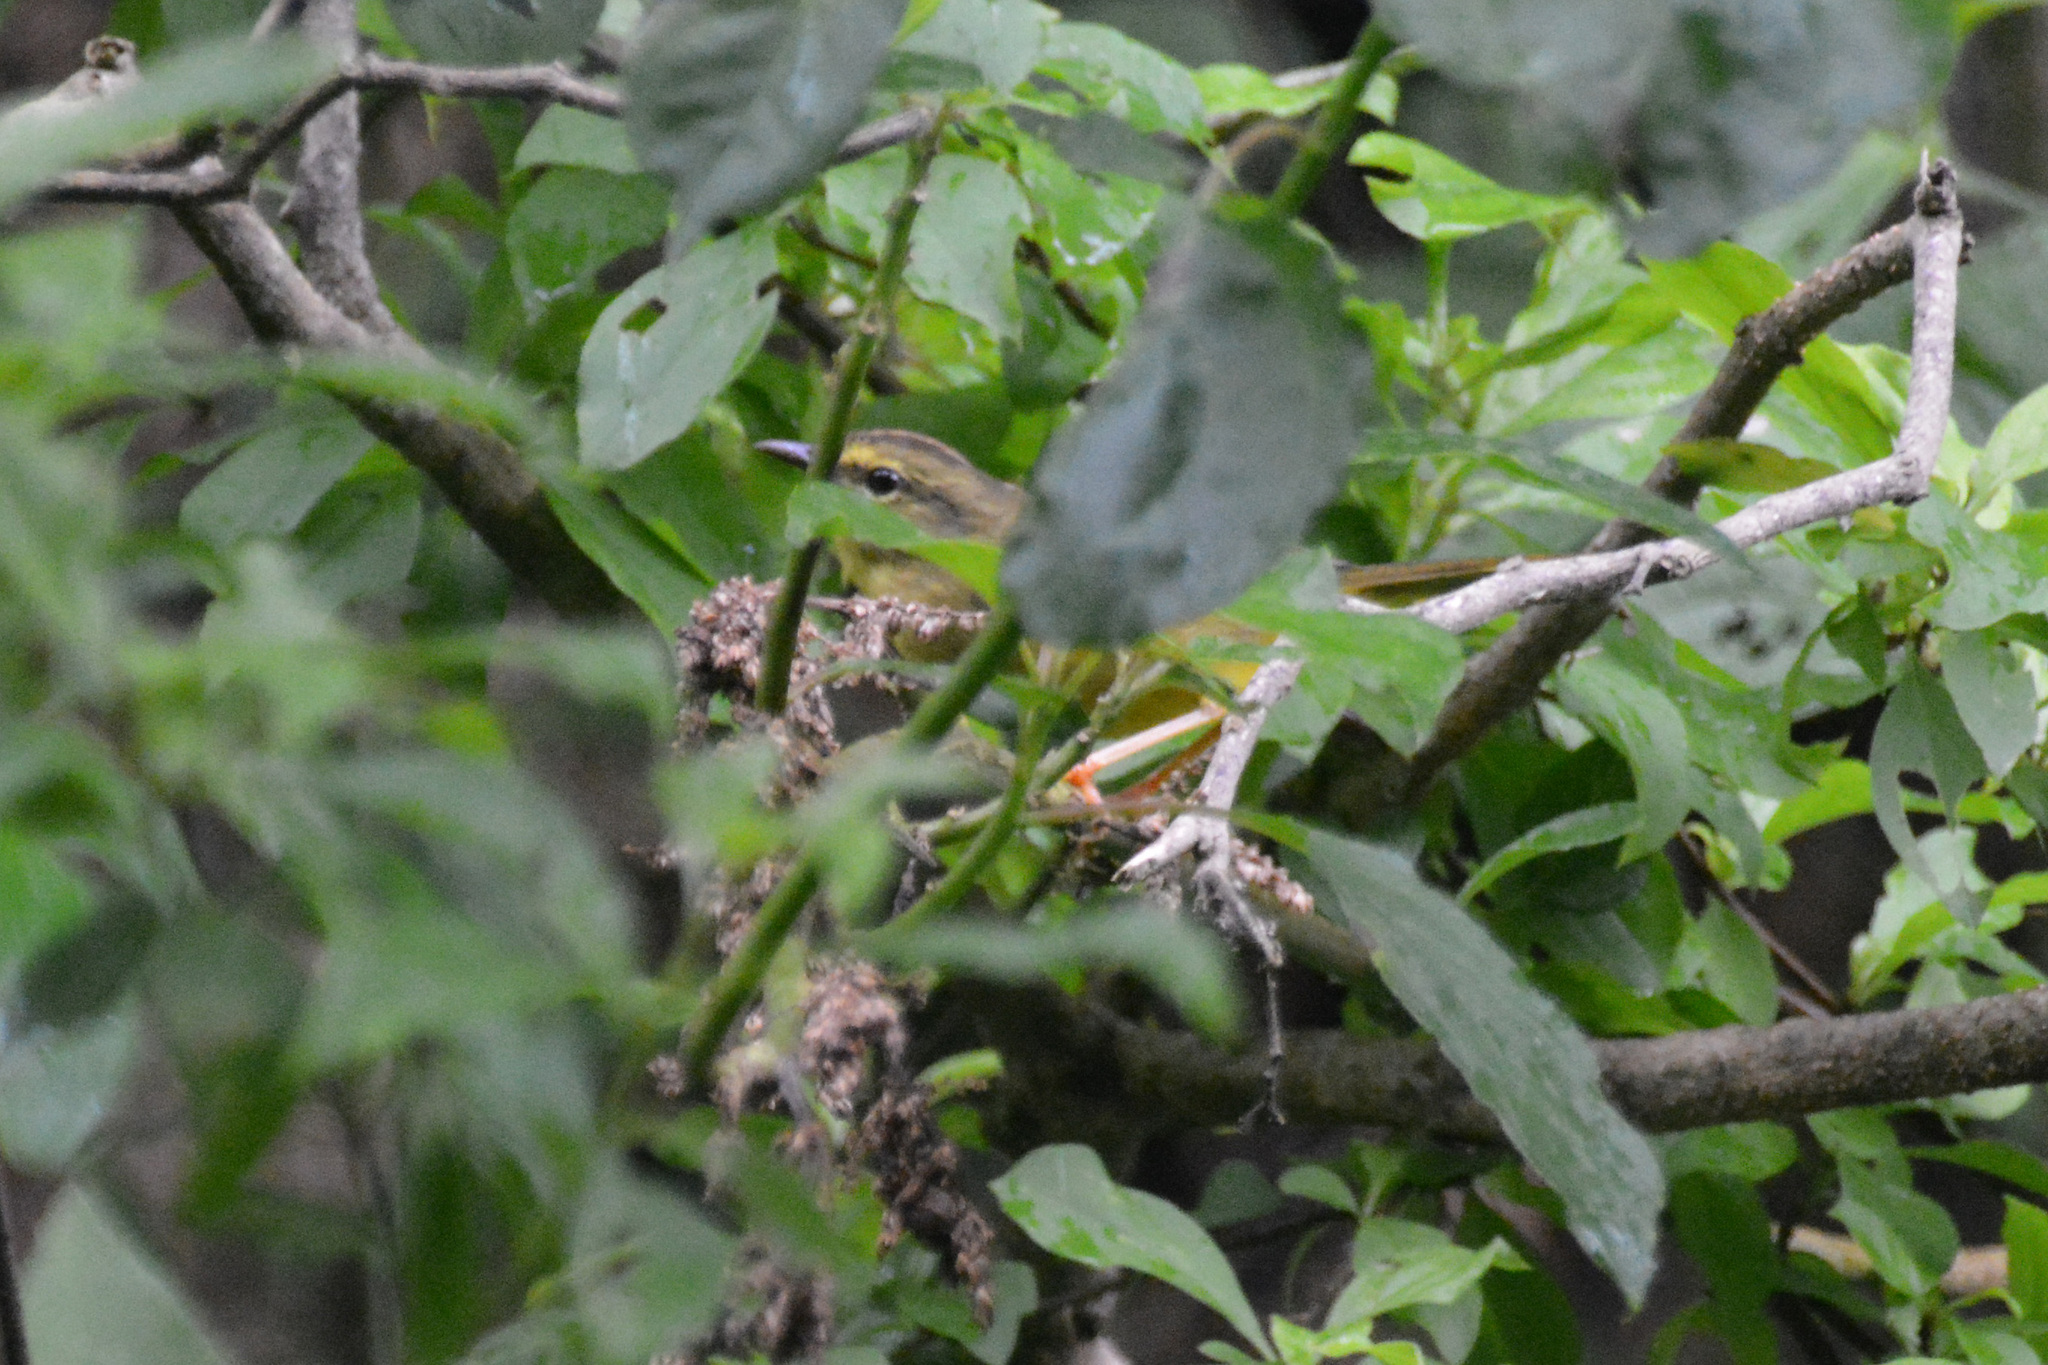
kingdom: Animalia
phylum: Chordata
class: Aves
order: Passeriformes
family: Parulidae
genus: Myiothlypis
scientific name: Myiothlypis bivittata
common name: Two-banded warbler
